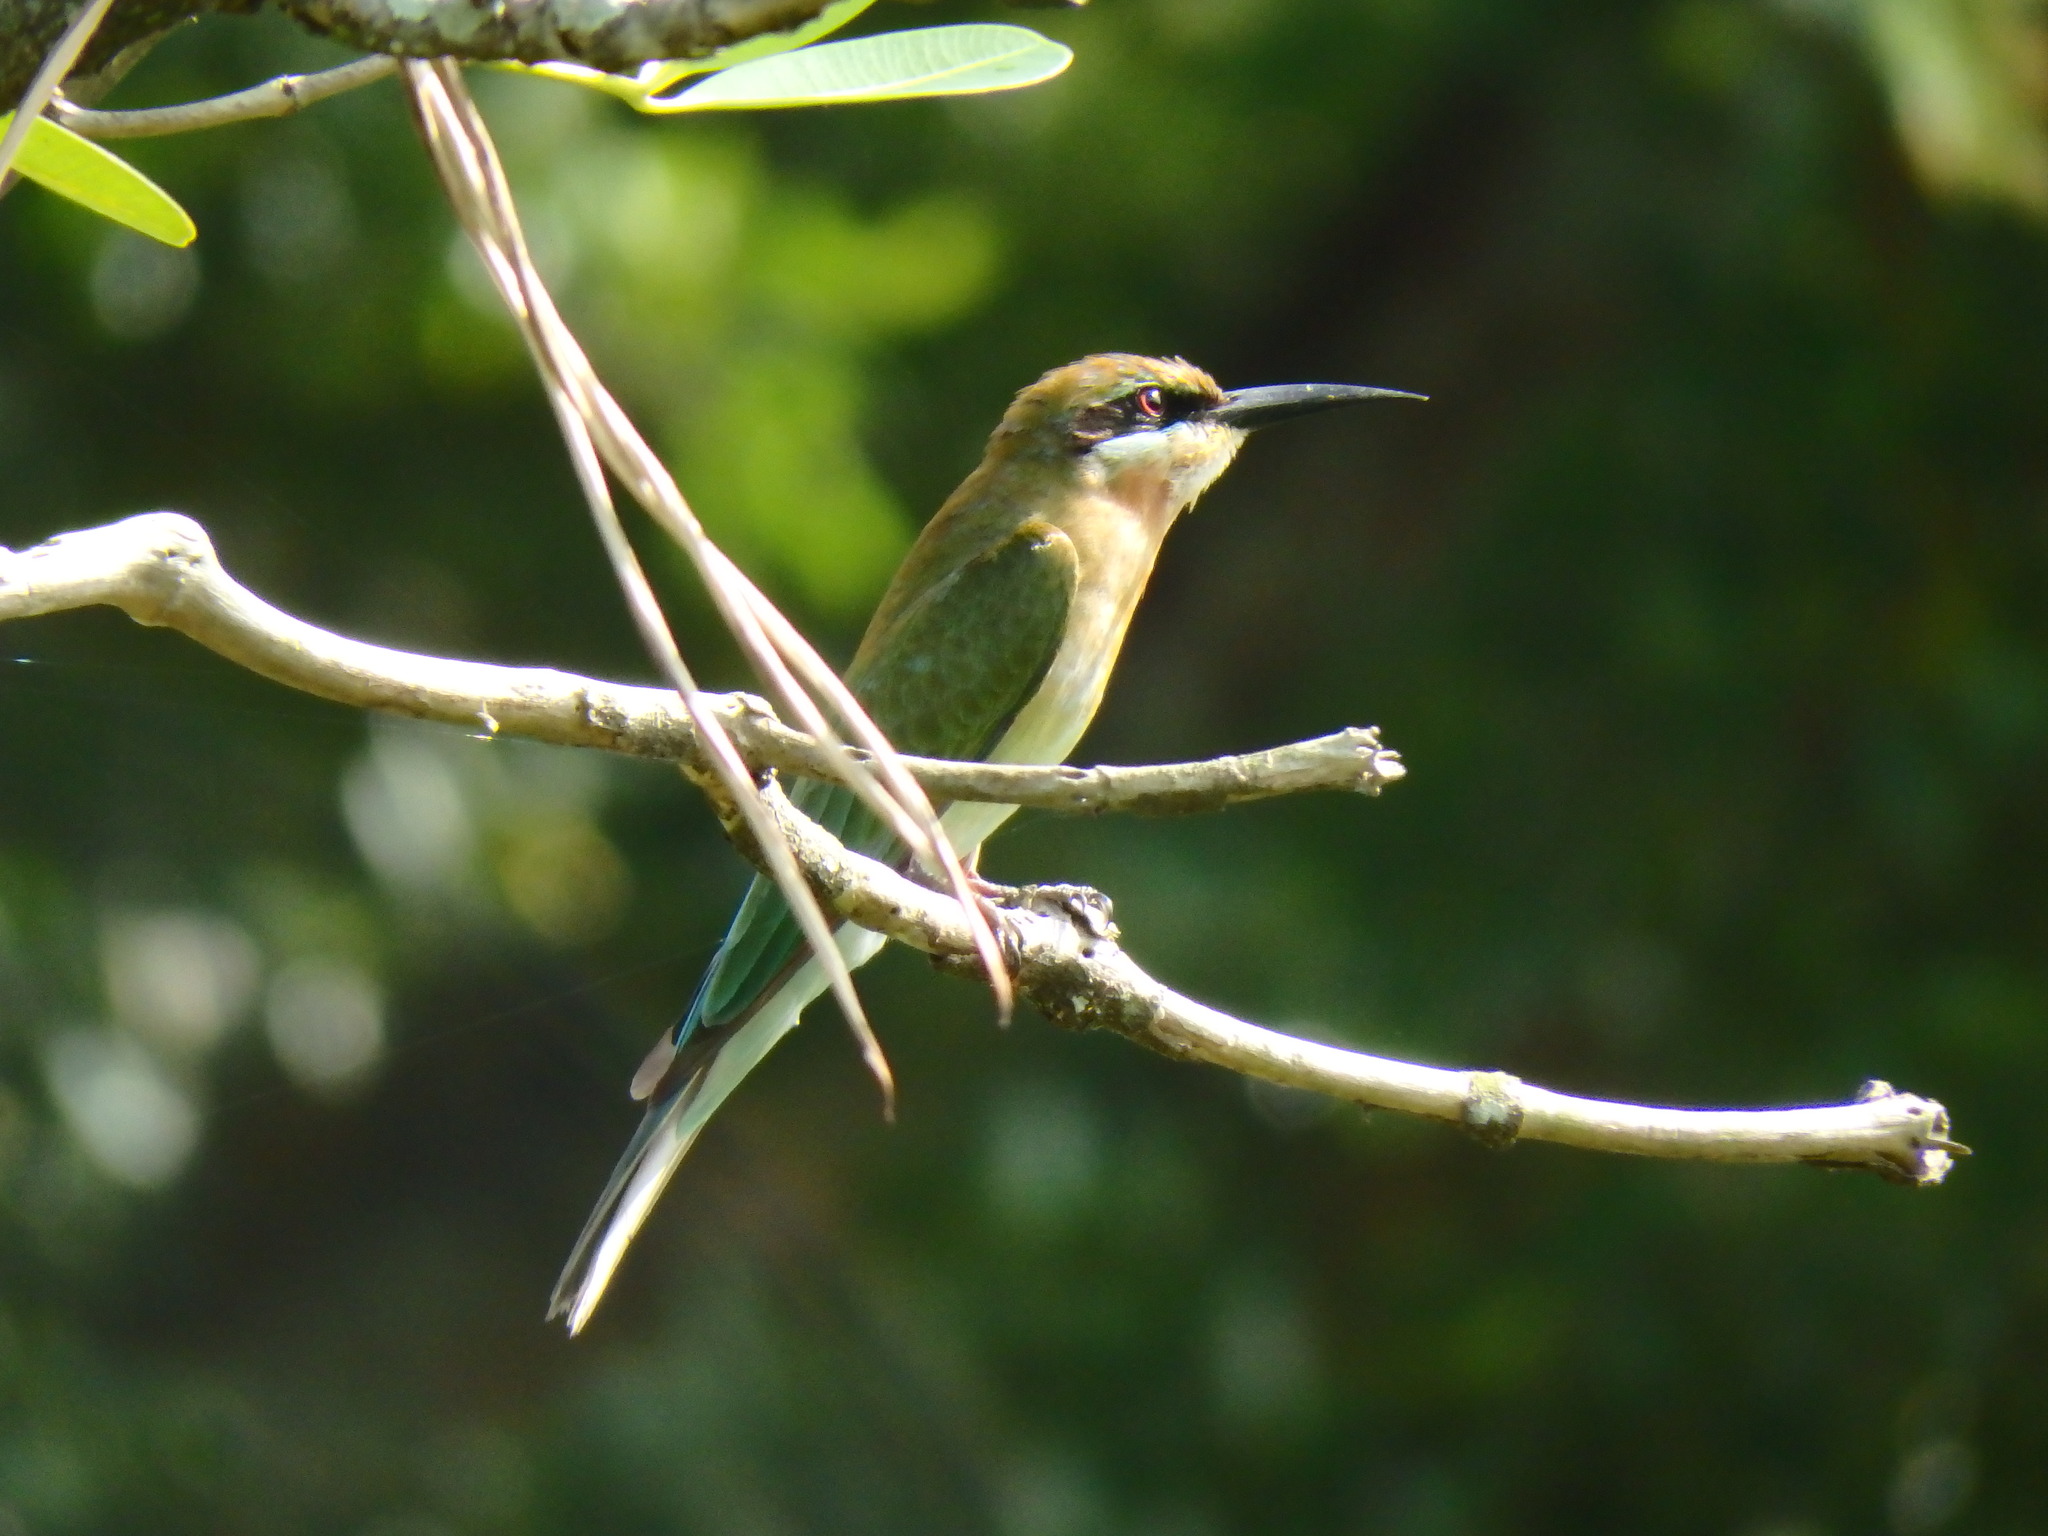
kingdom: Animalia
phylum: Chordata
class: Aves
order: Coraciiformes
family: Meropidae
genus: Merops
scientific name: Merops philippinus
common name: Blue-tailed bee-eater
